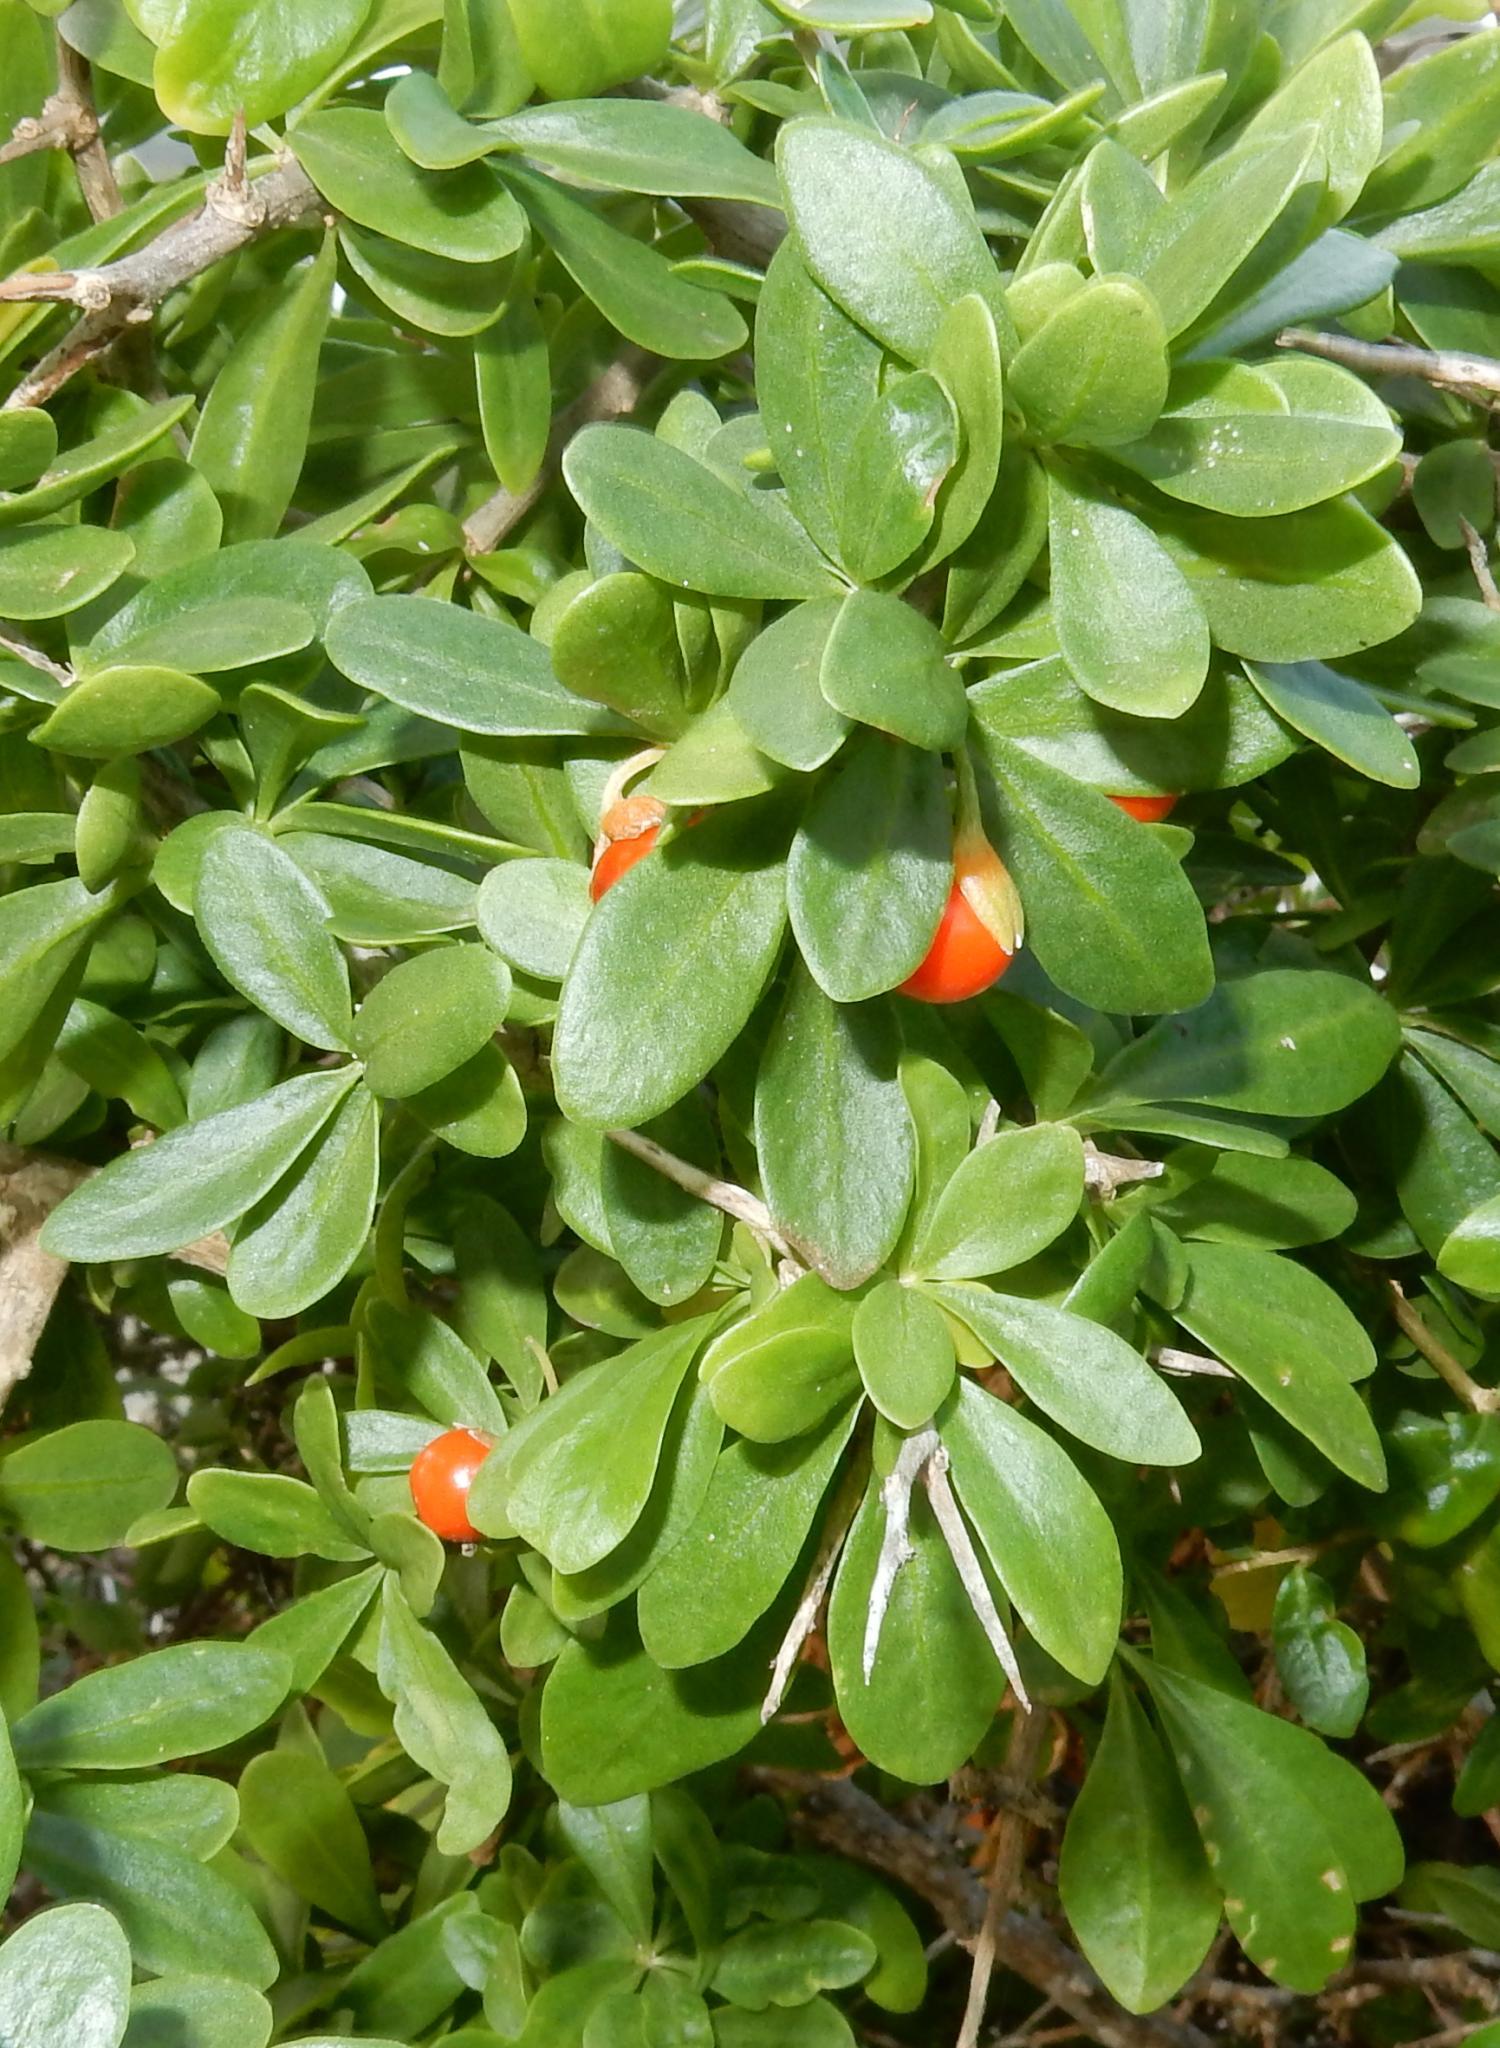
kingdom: Plantae
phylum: Tracheophyta
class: Magnoliopsida
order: Solanales
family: Solanaceae
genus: Lycium
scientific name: Lycium ferocissimum
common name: African boxthorn
